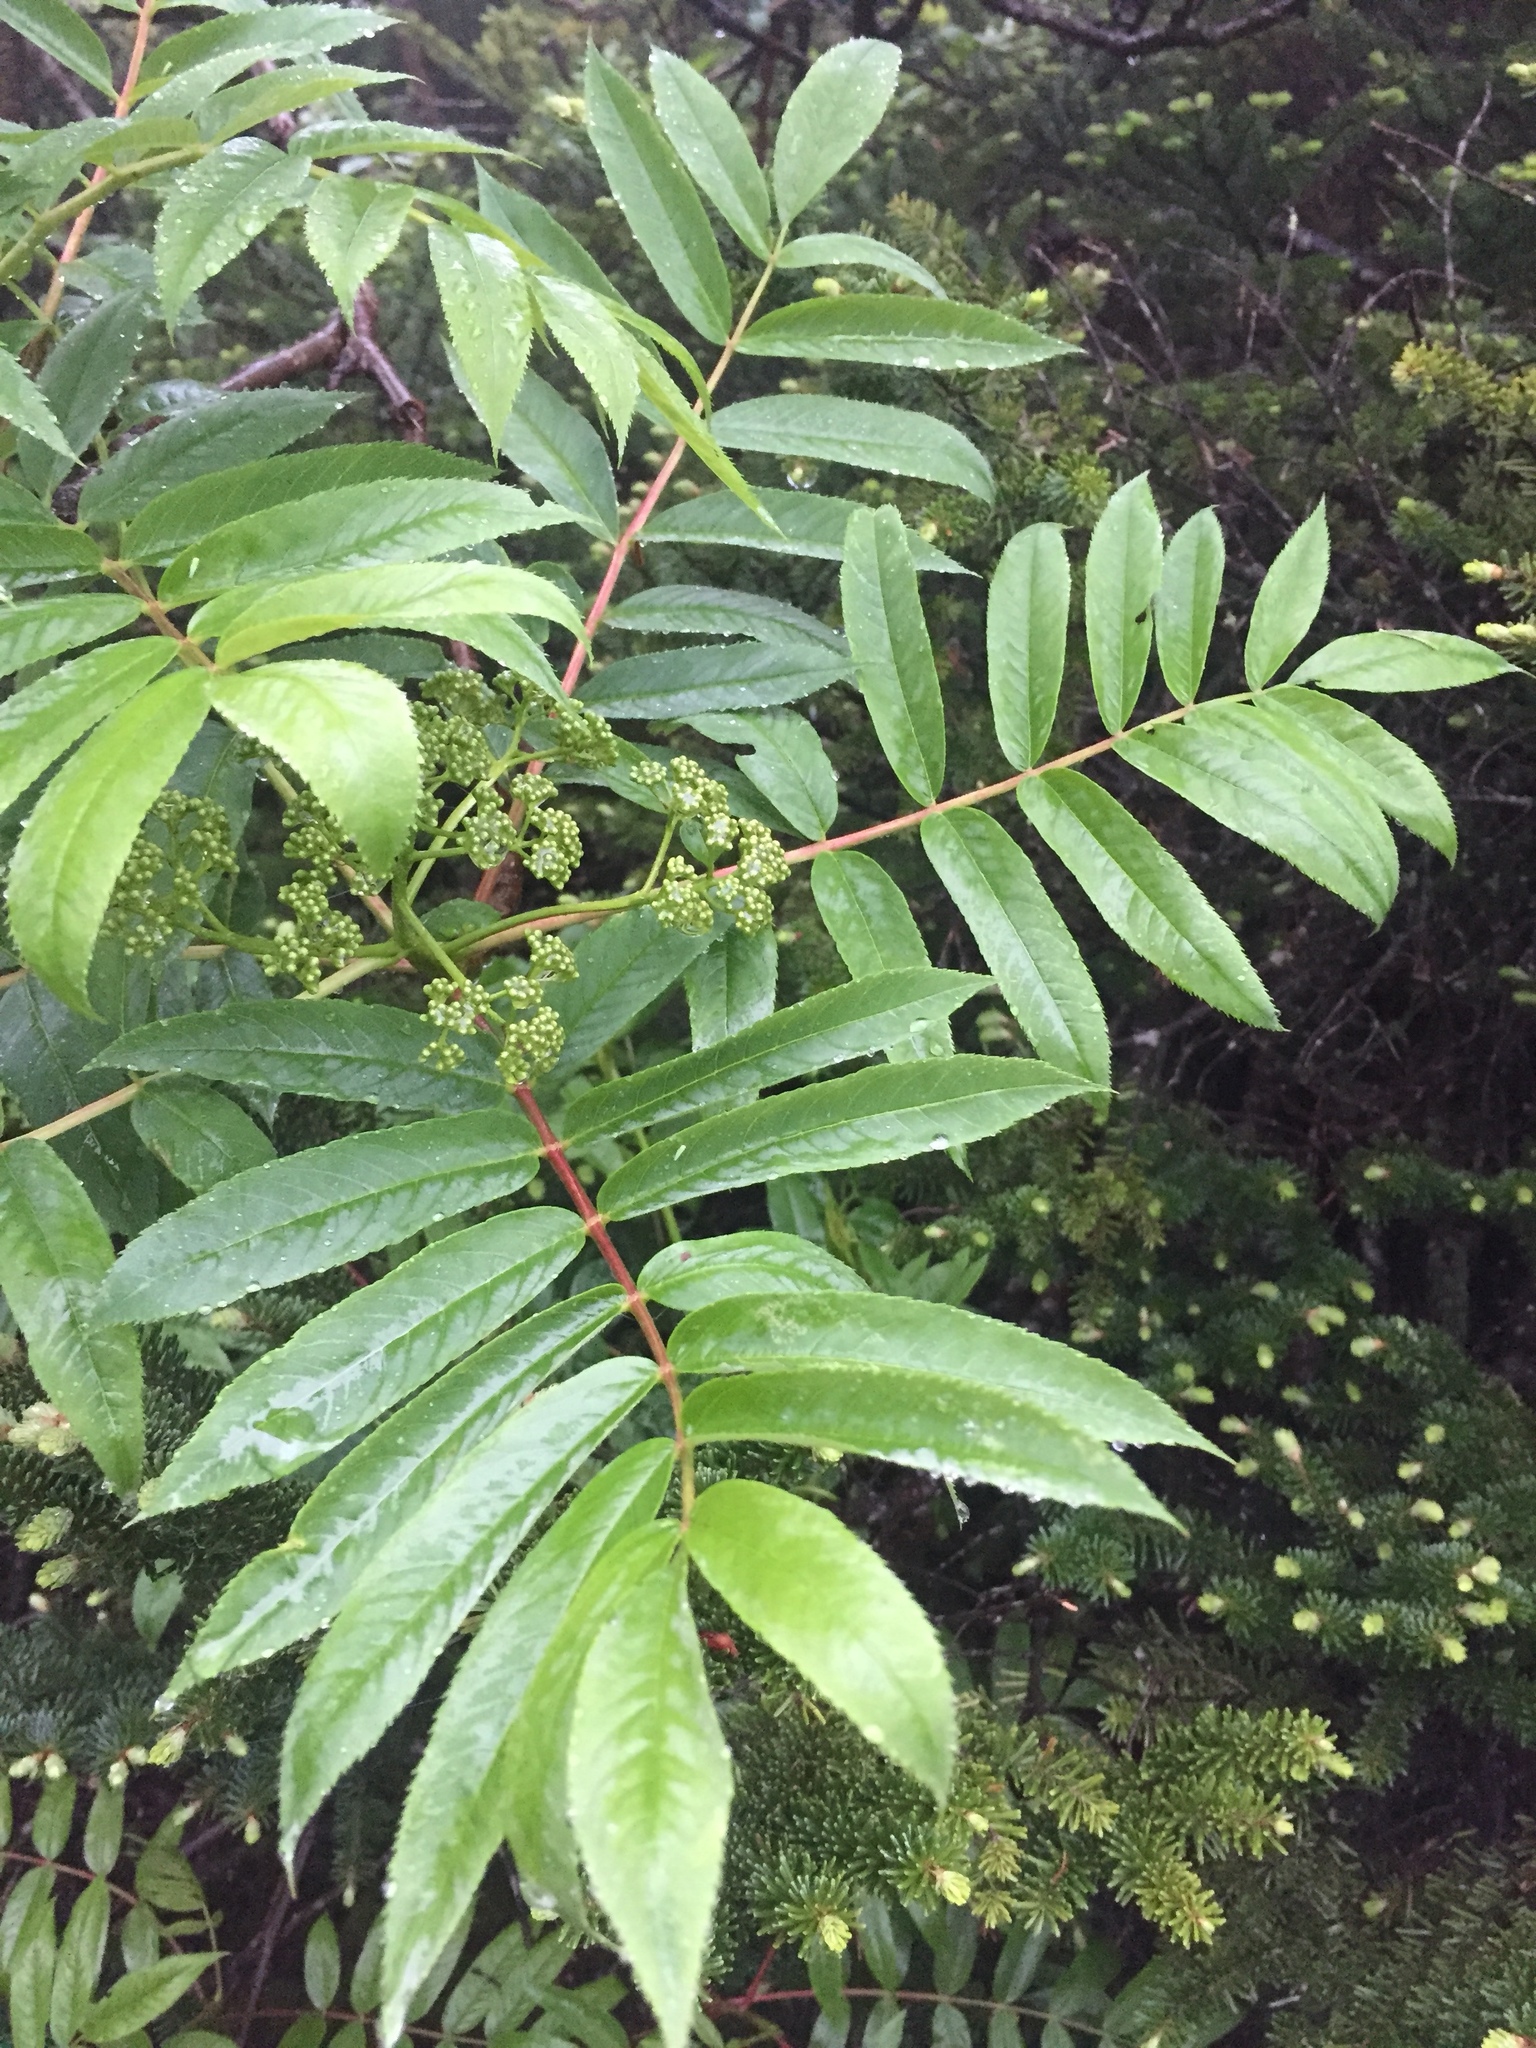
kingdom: Plantae
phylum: Tracheophyta
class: Magnoliopsida
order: Rosales
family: Rosaceae
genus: Sorbus
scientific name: Sorbus americana
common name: American mountain-ash
